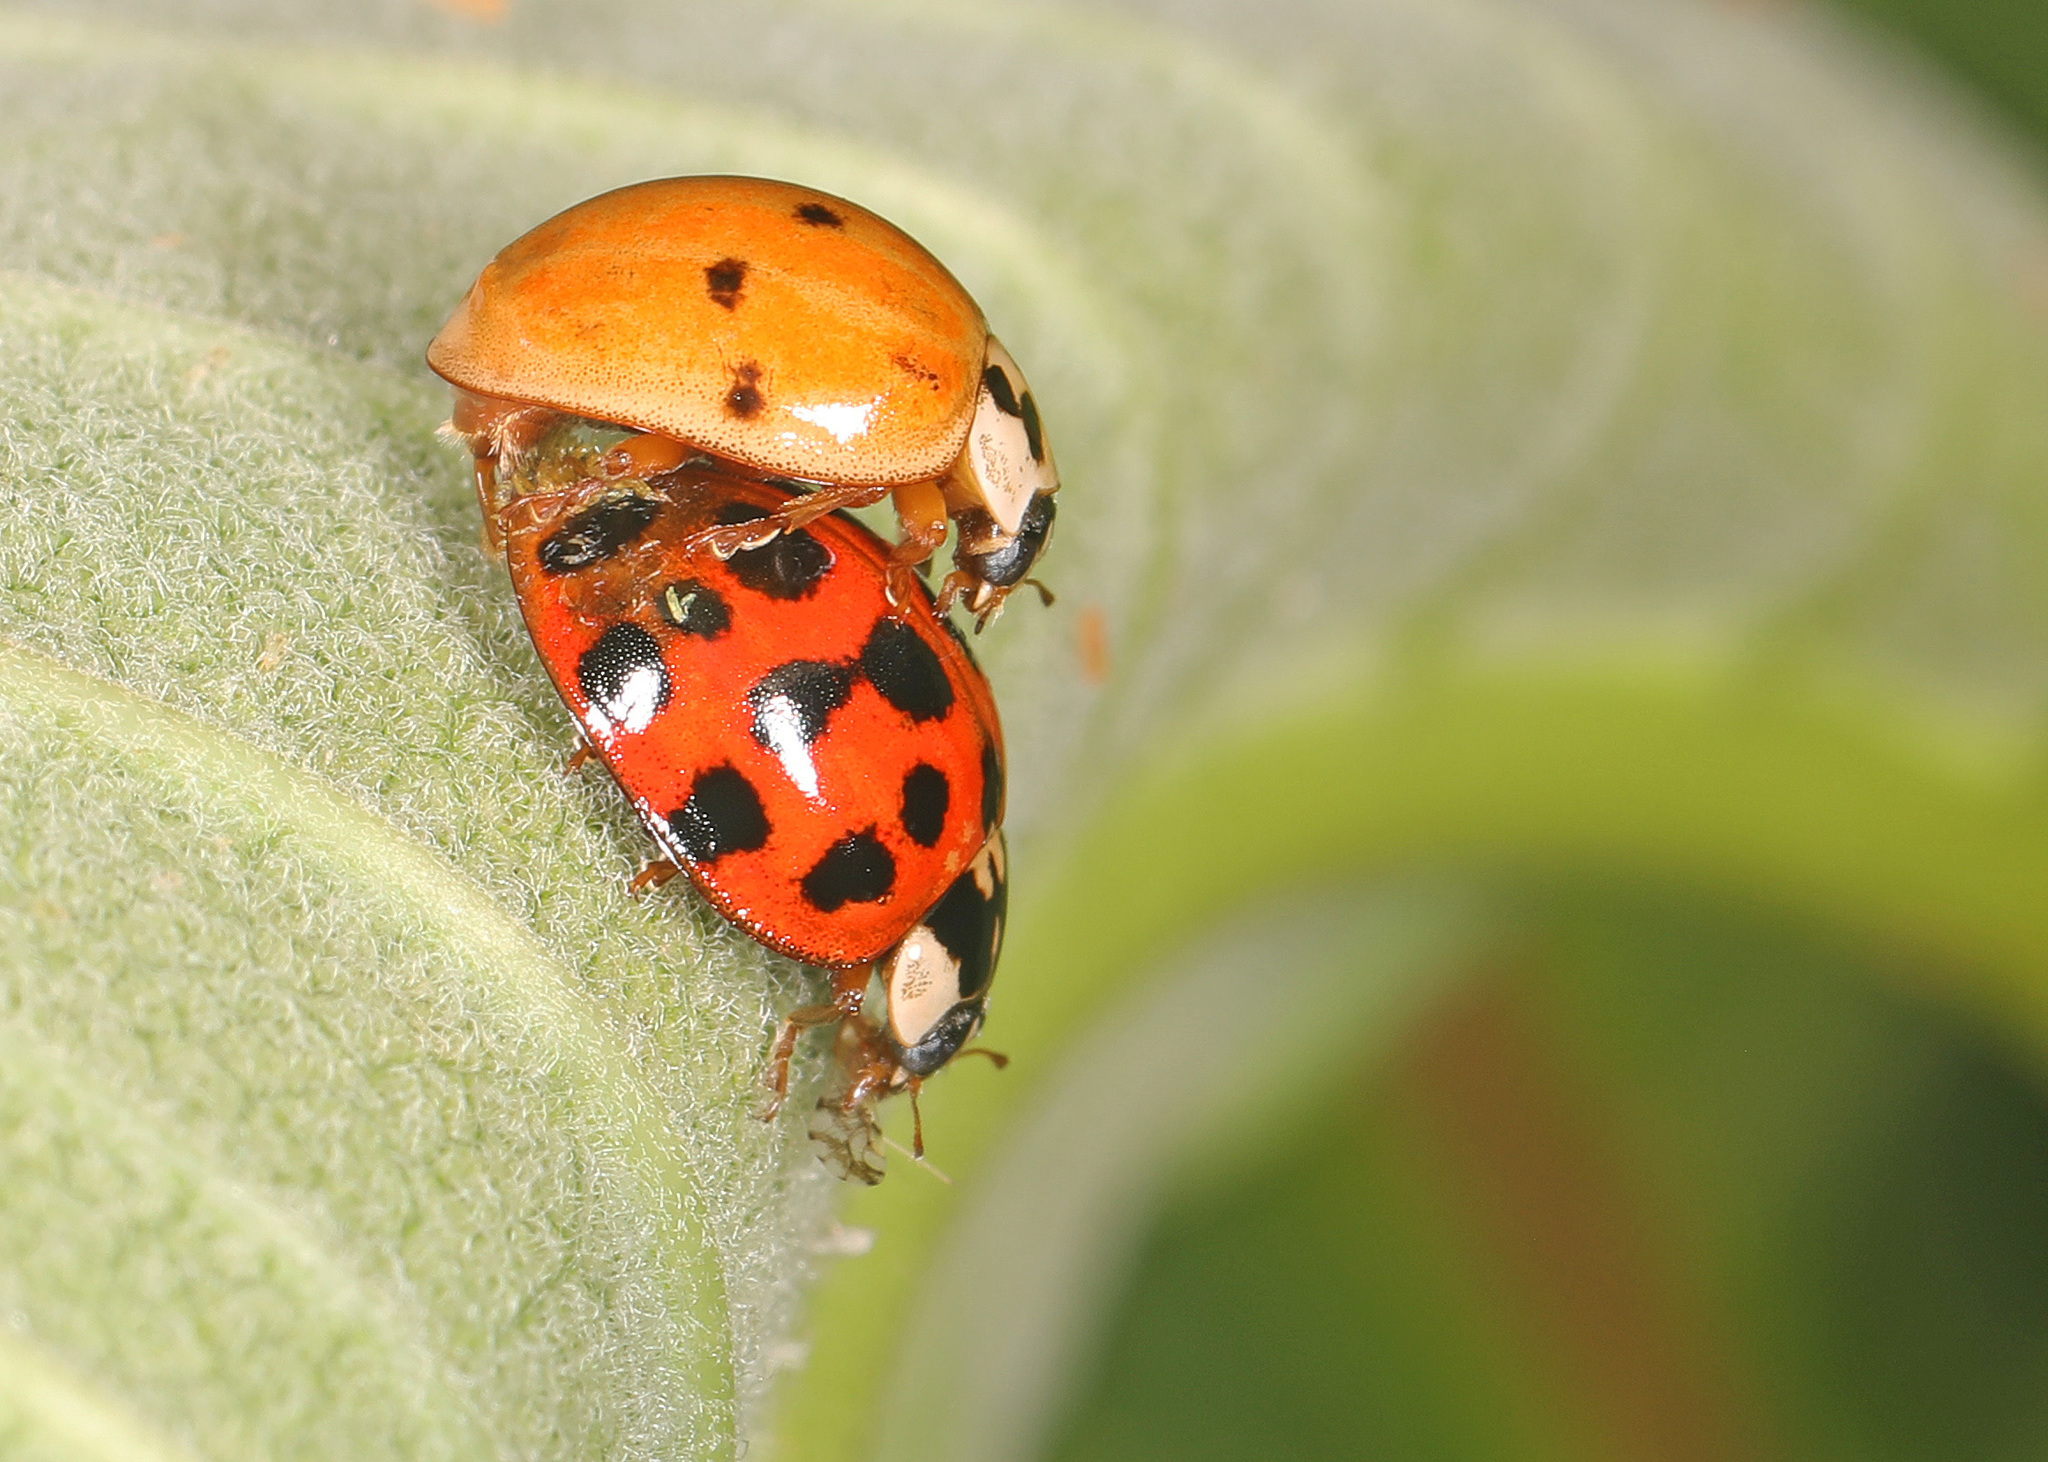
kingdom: Animalia
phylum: Arthropoda
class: Insecta
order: Coleoptera
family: Coccinellidae
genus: Harmonia
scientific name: Harmonia axyridis
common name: Harlequin ladybird
